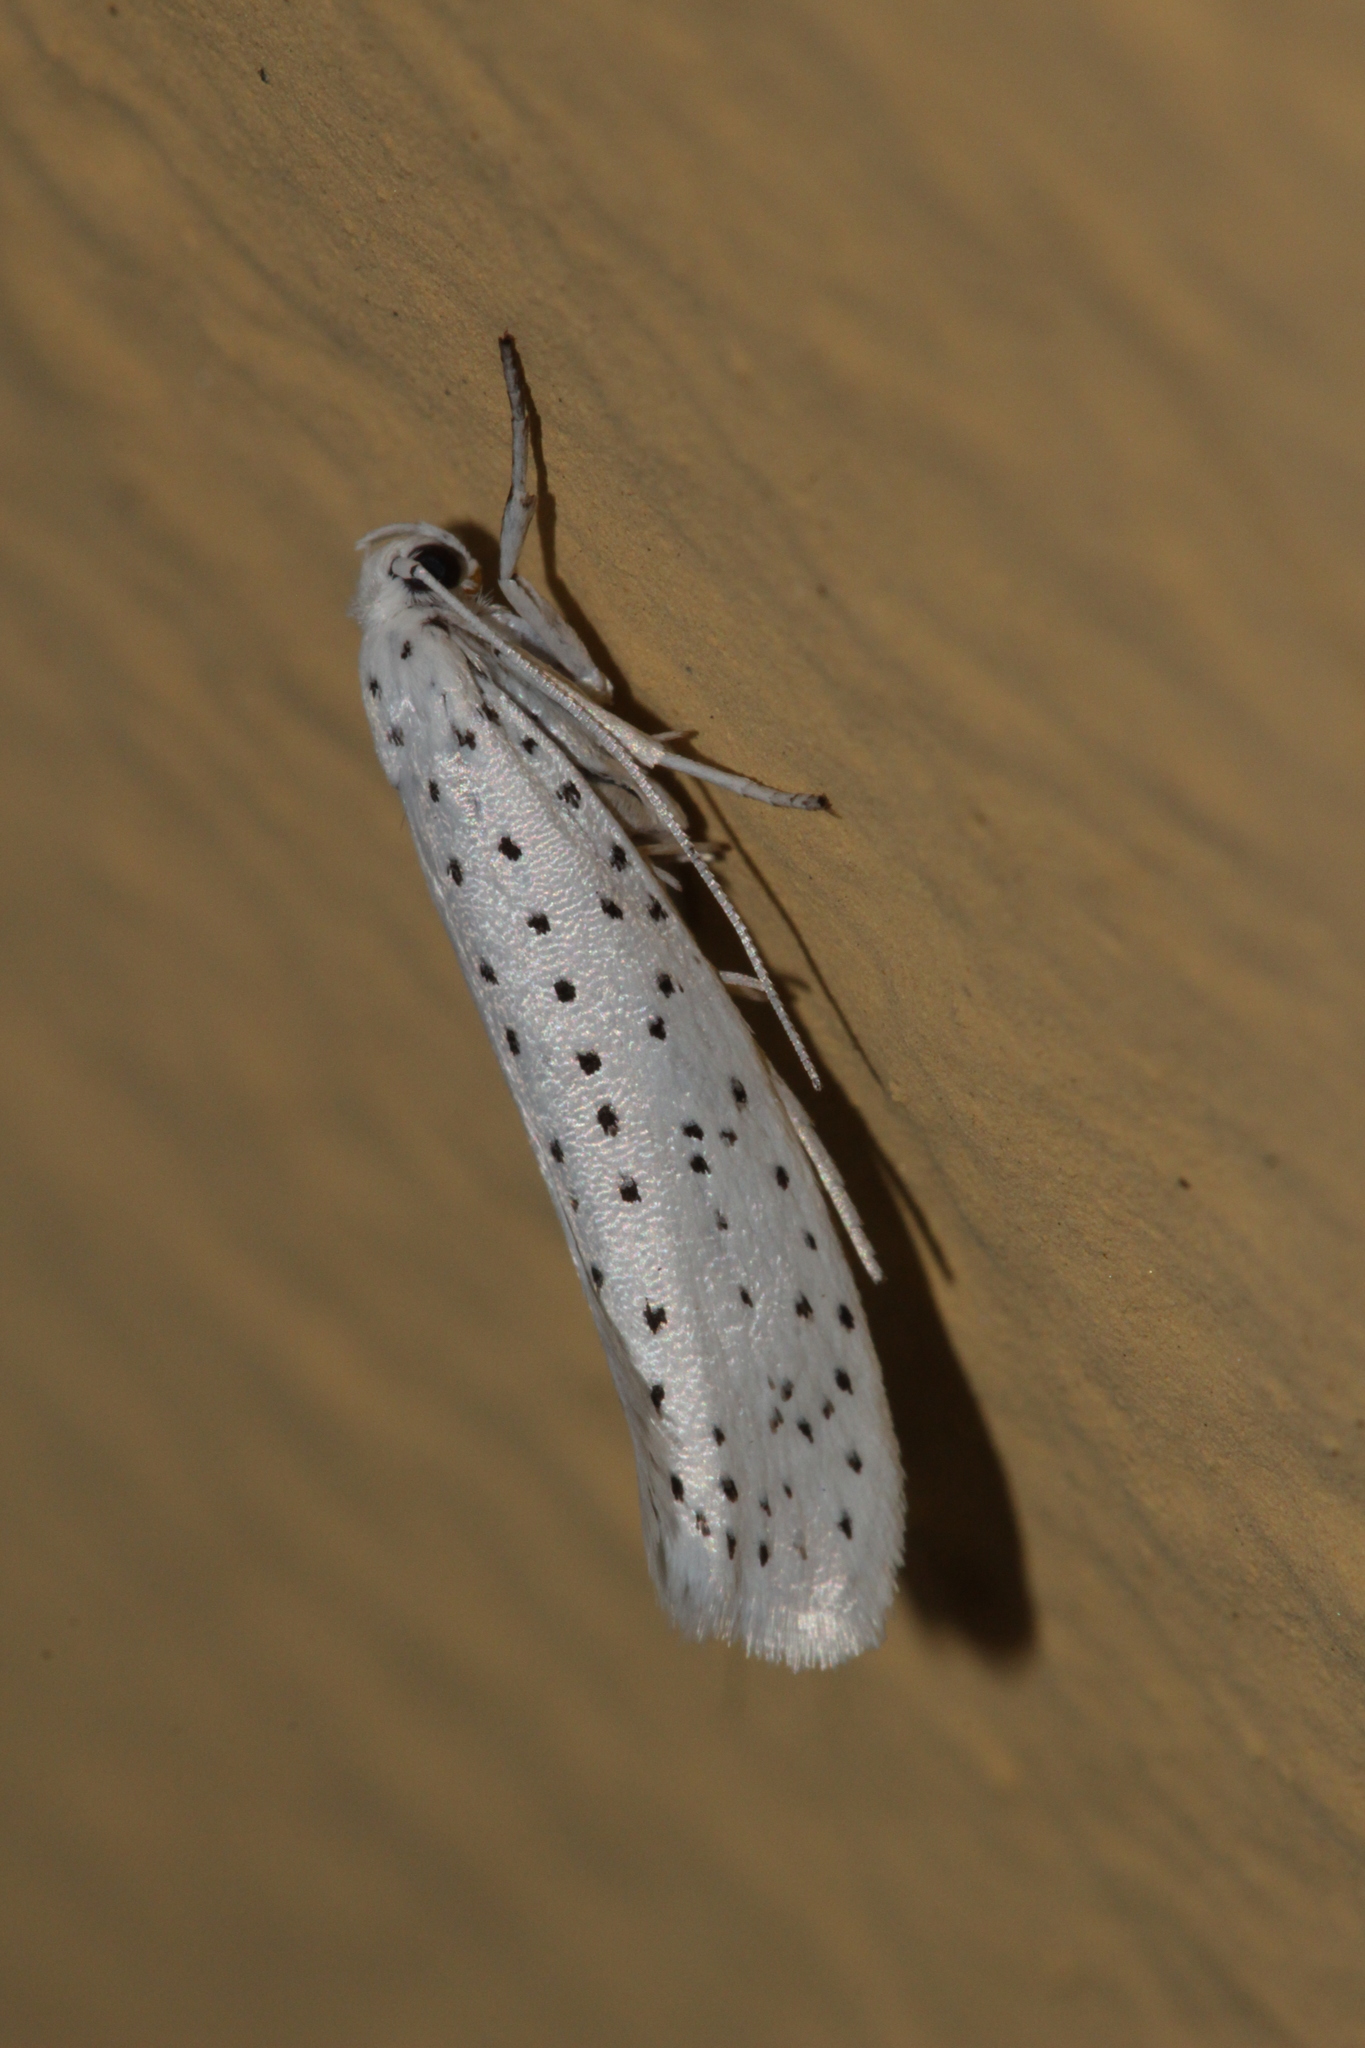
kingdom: Animalia
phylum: Arthropoda
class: Insecta
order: Lepidoptera
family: Yponomeutidae
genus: Yponomeuta
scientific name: Yponomeuta evonymella
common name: Bird-cherry ermine
